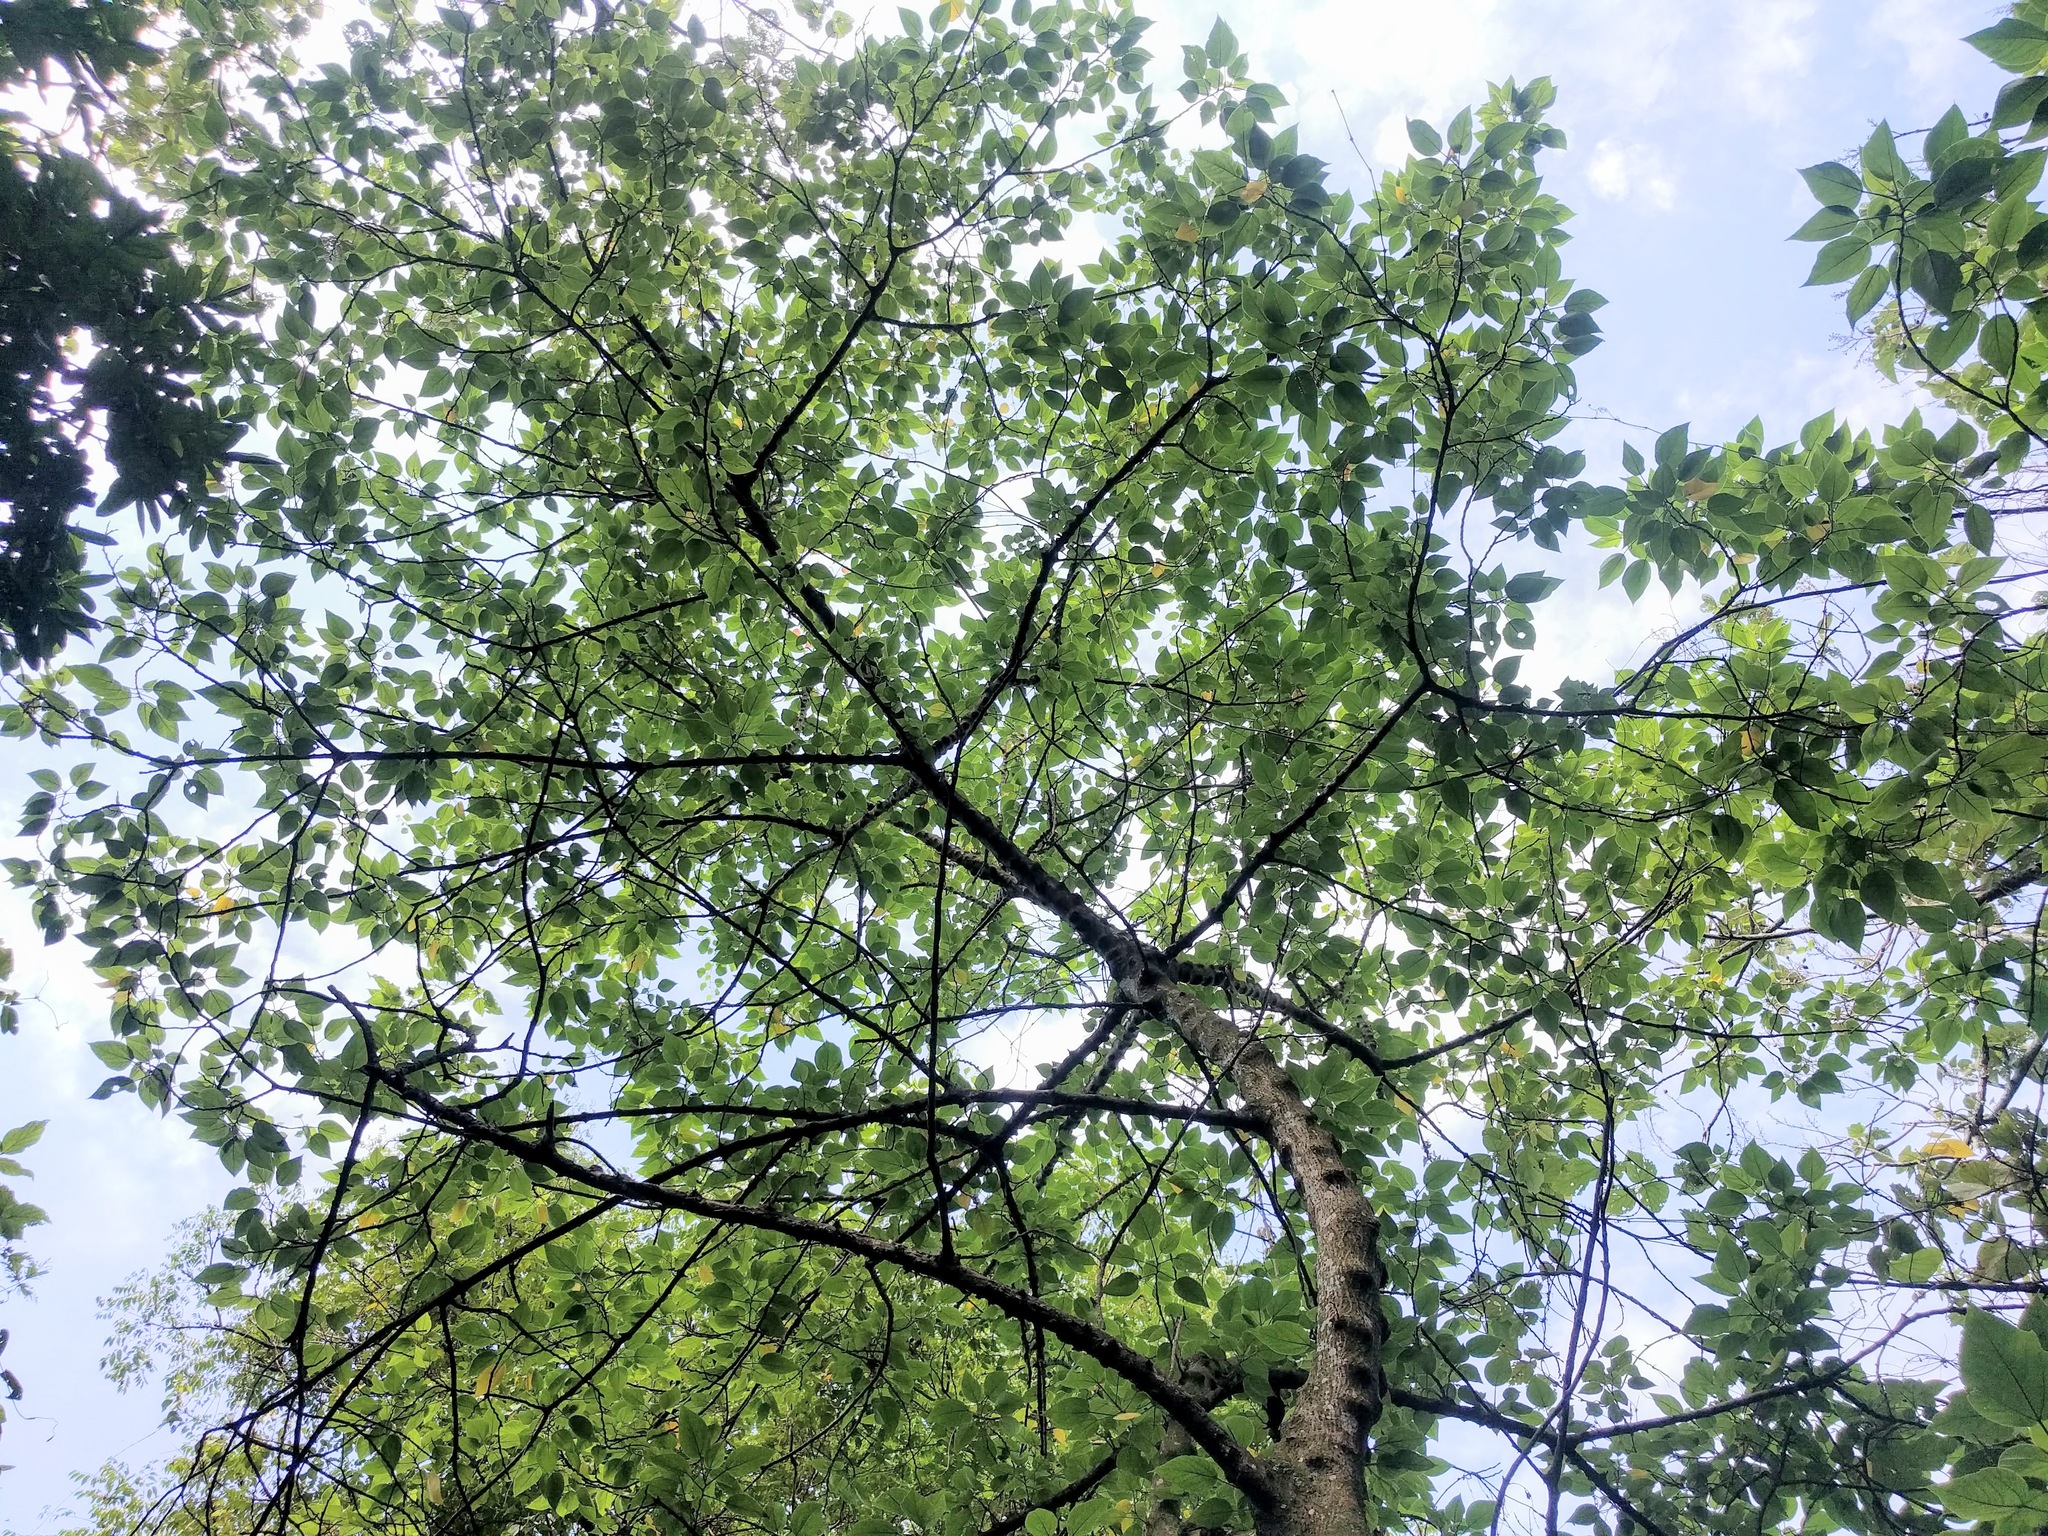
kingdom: Plantae
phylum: Tracheophyta
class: Magnoliopsida
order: Rosales
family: Moraceae
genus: Broussonetia
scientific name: Broussonetia papyrifera
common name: Paper mulberry
